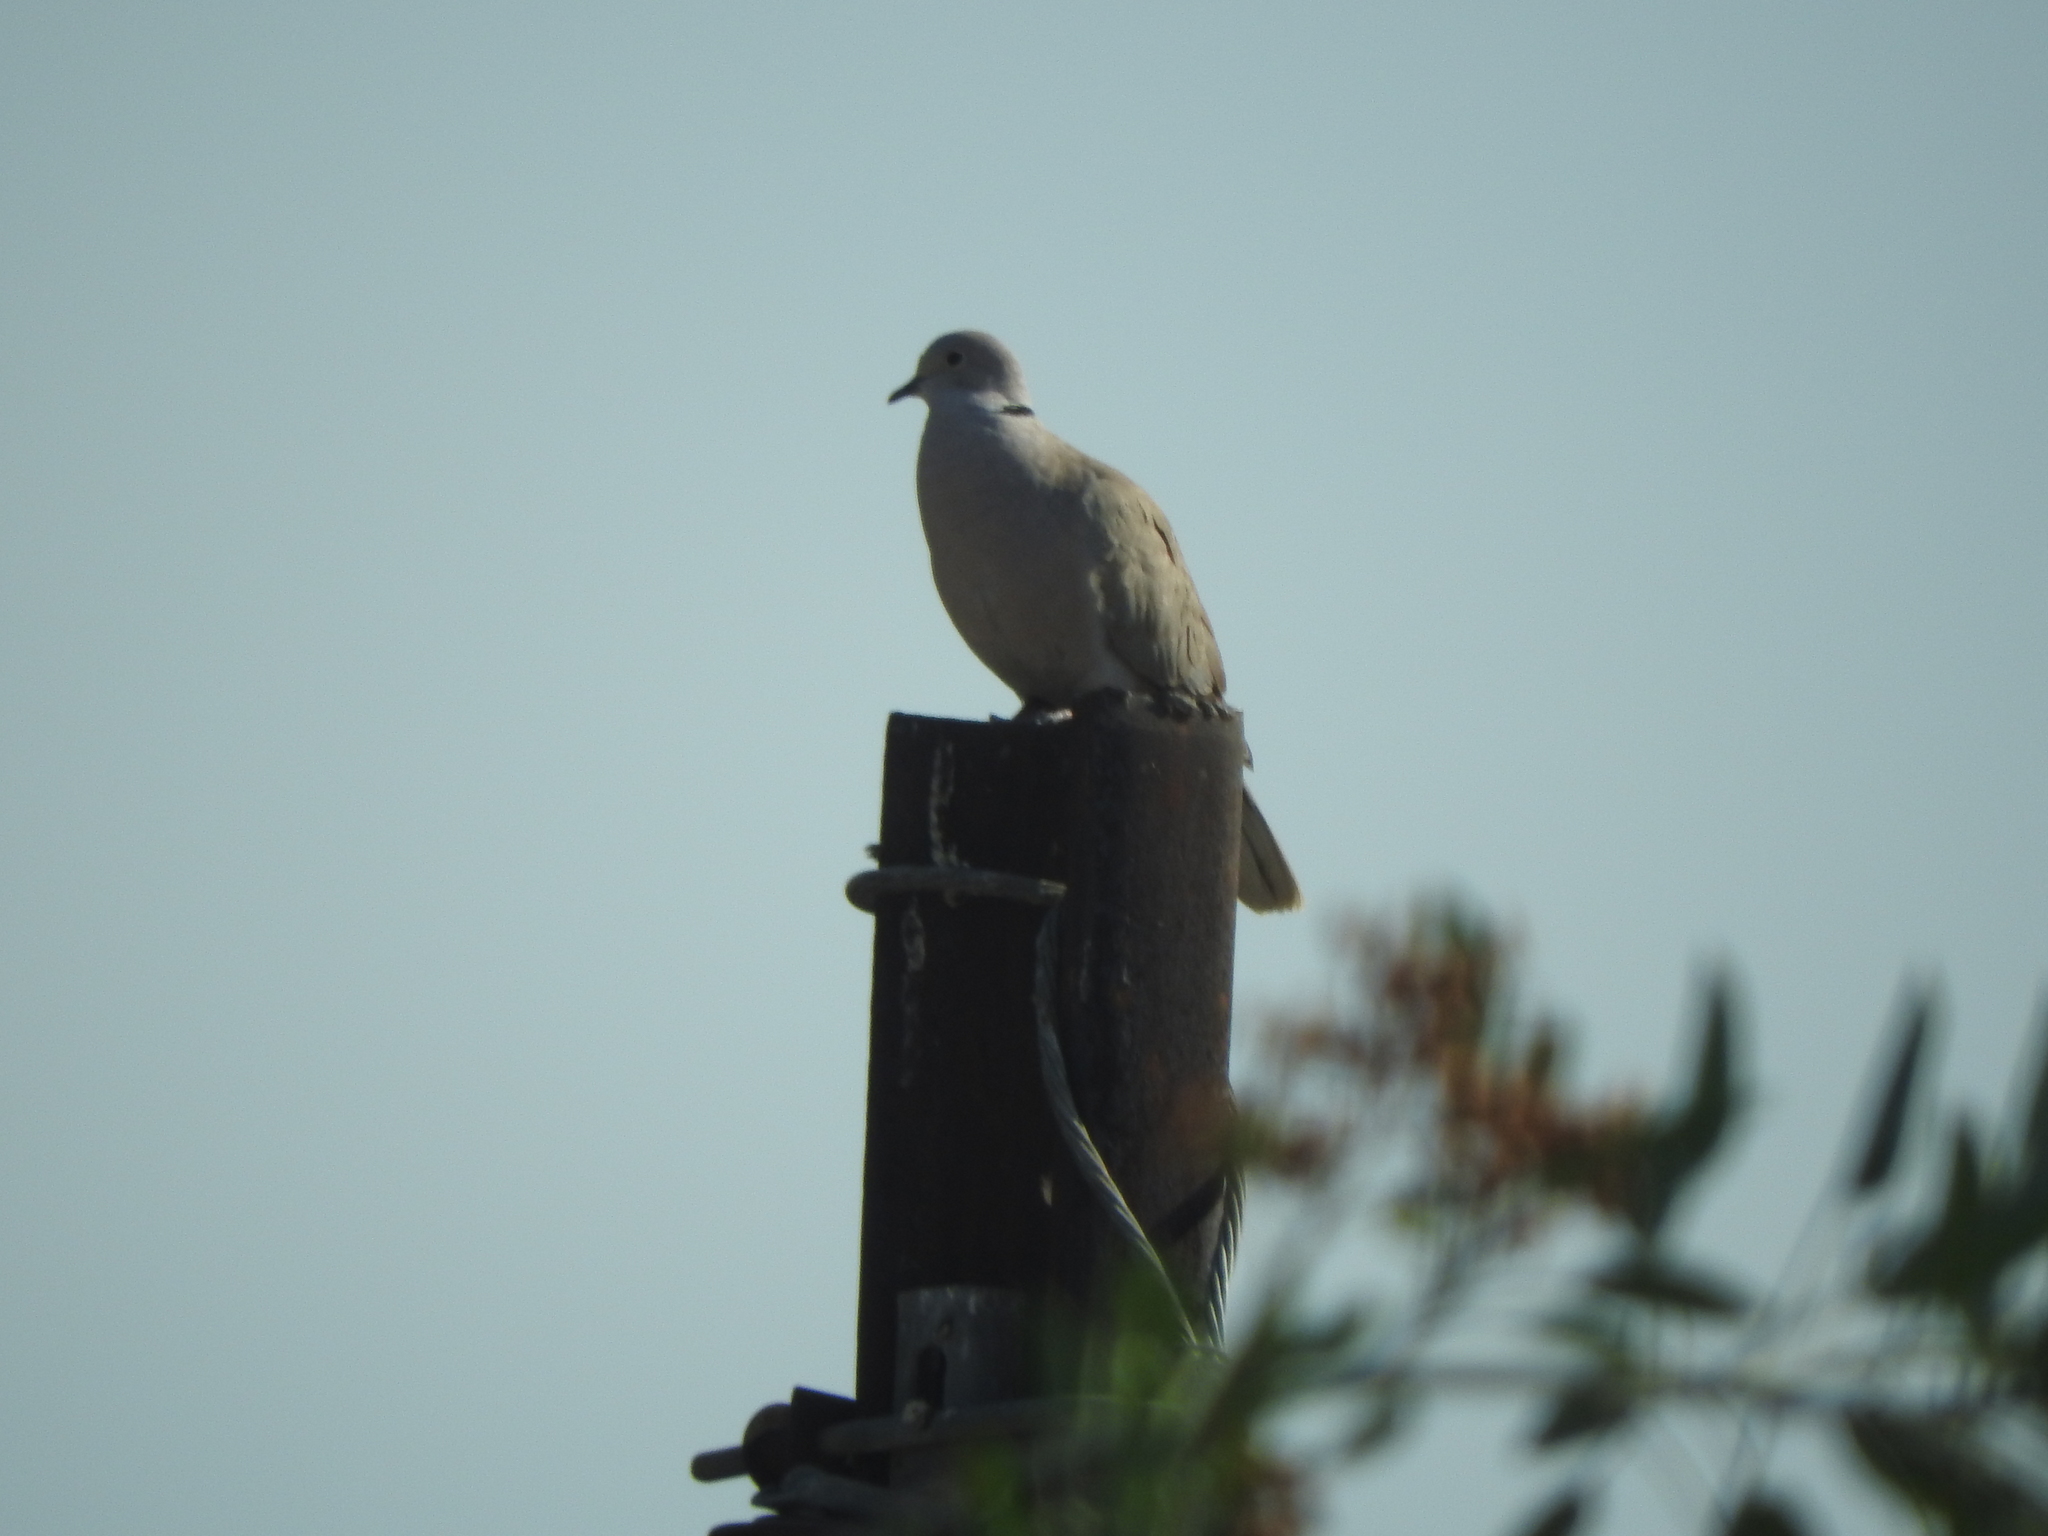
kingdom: Animalia
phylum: Chordata
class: Aves
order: Columbiformes
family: Columbidae
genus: Streptopelia
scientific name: Streptopelia decaocto
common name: Eurasian collared dove
